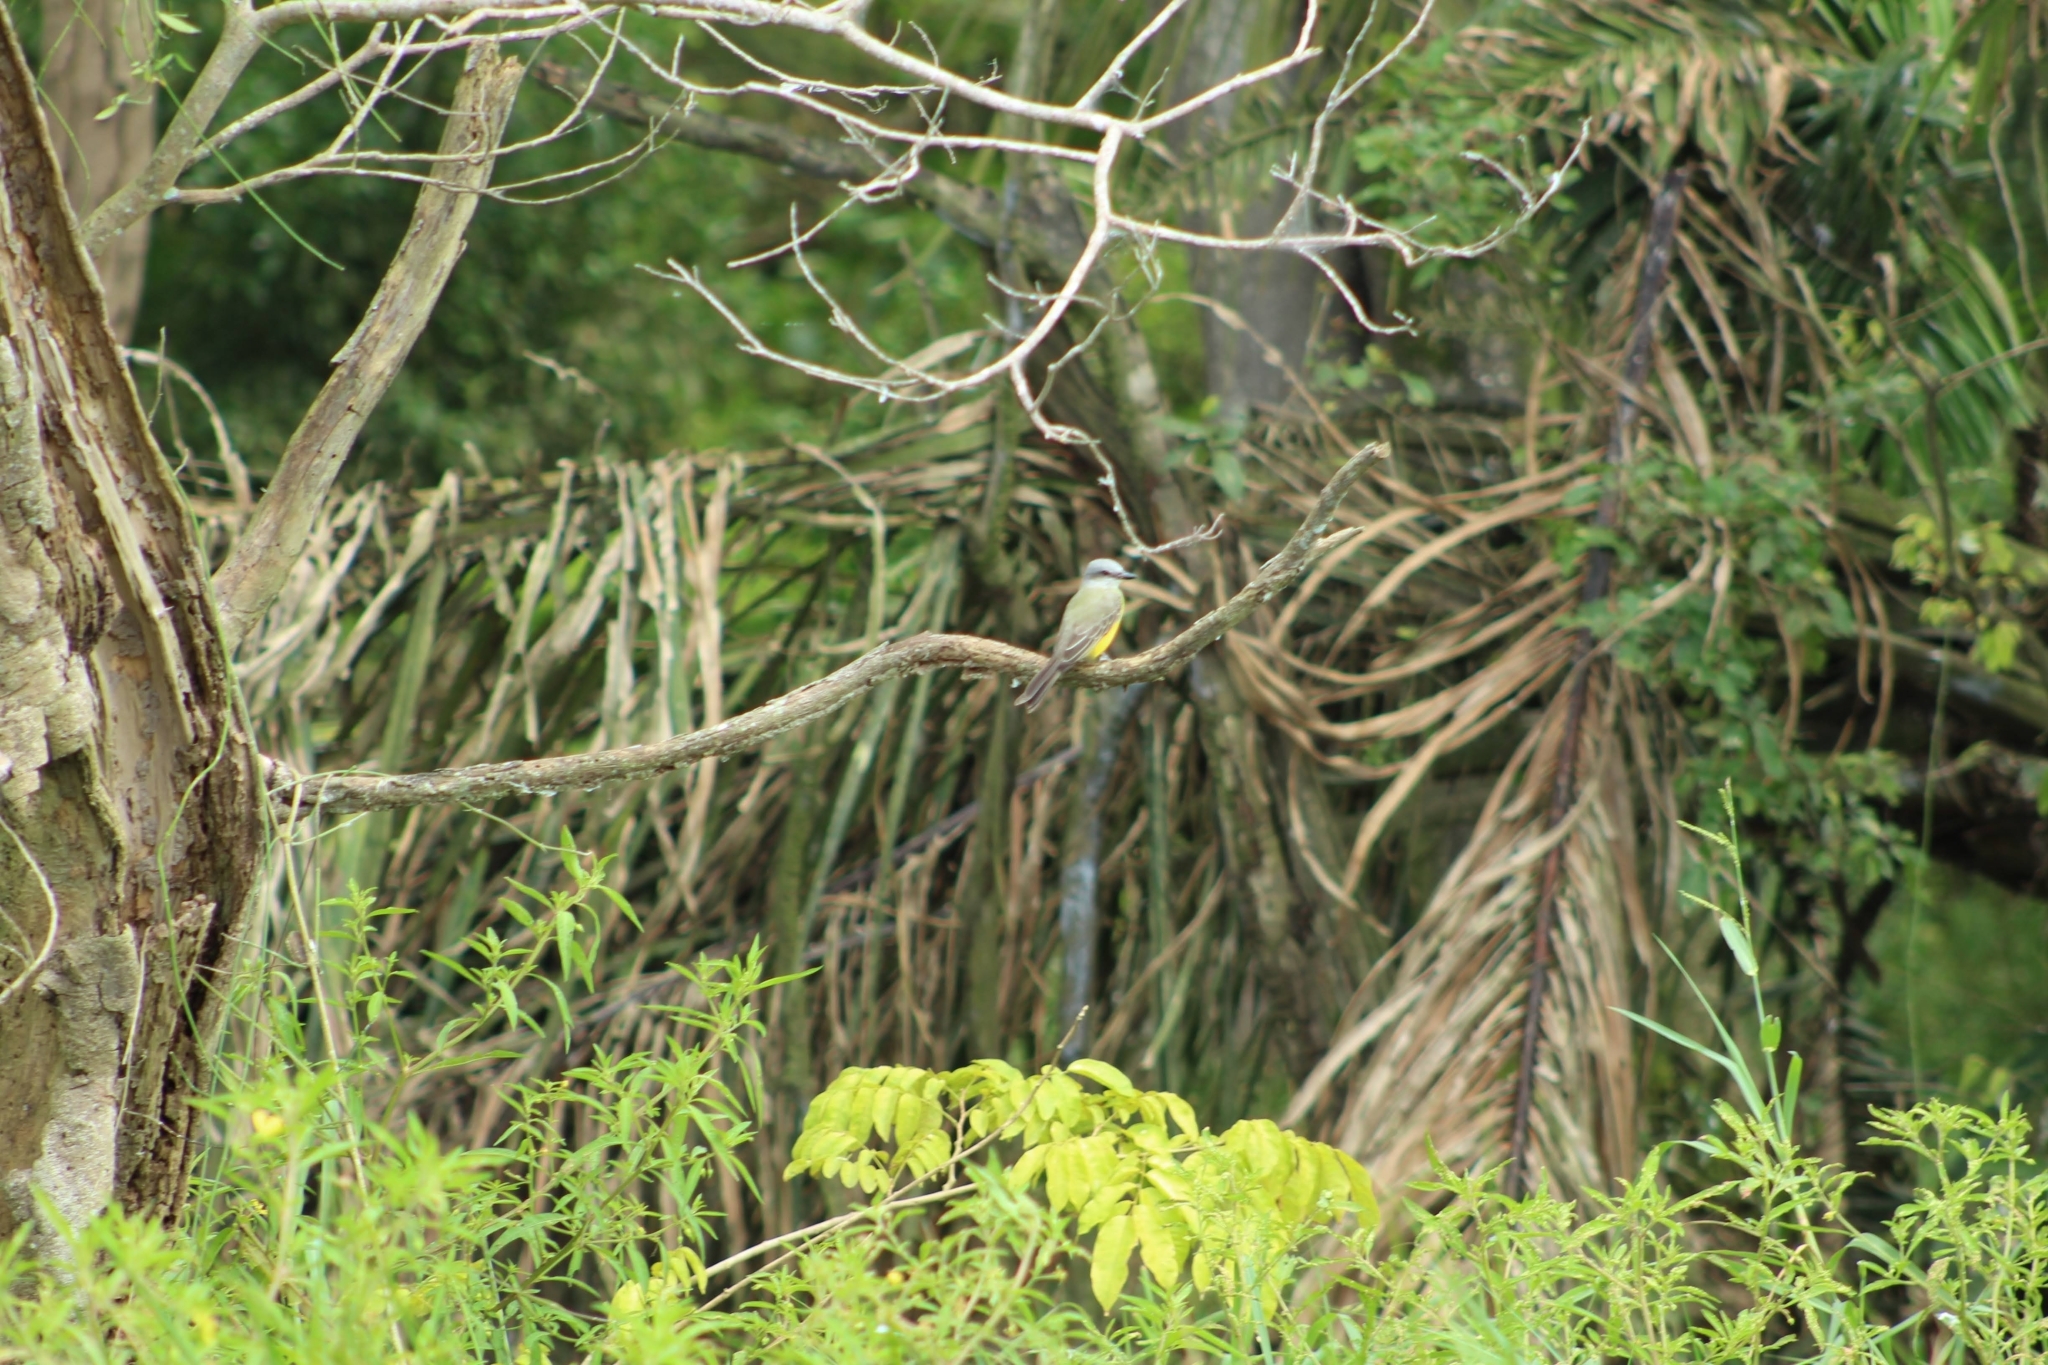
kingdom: Animalia
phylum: Chordata
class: Aves
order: Passeriformes
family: Tyrannidae
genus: Tyrannus
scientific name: Tyrannus melancholicus
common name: Tropical kingbird
